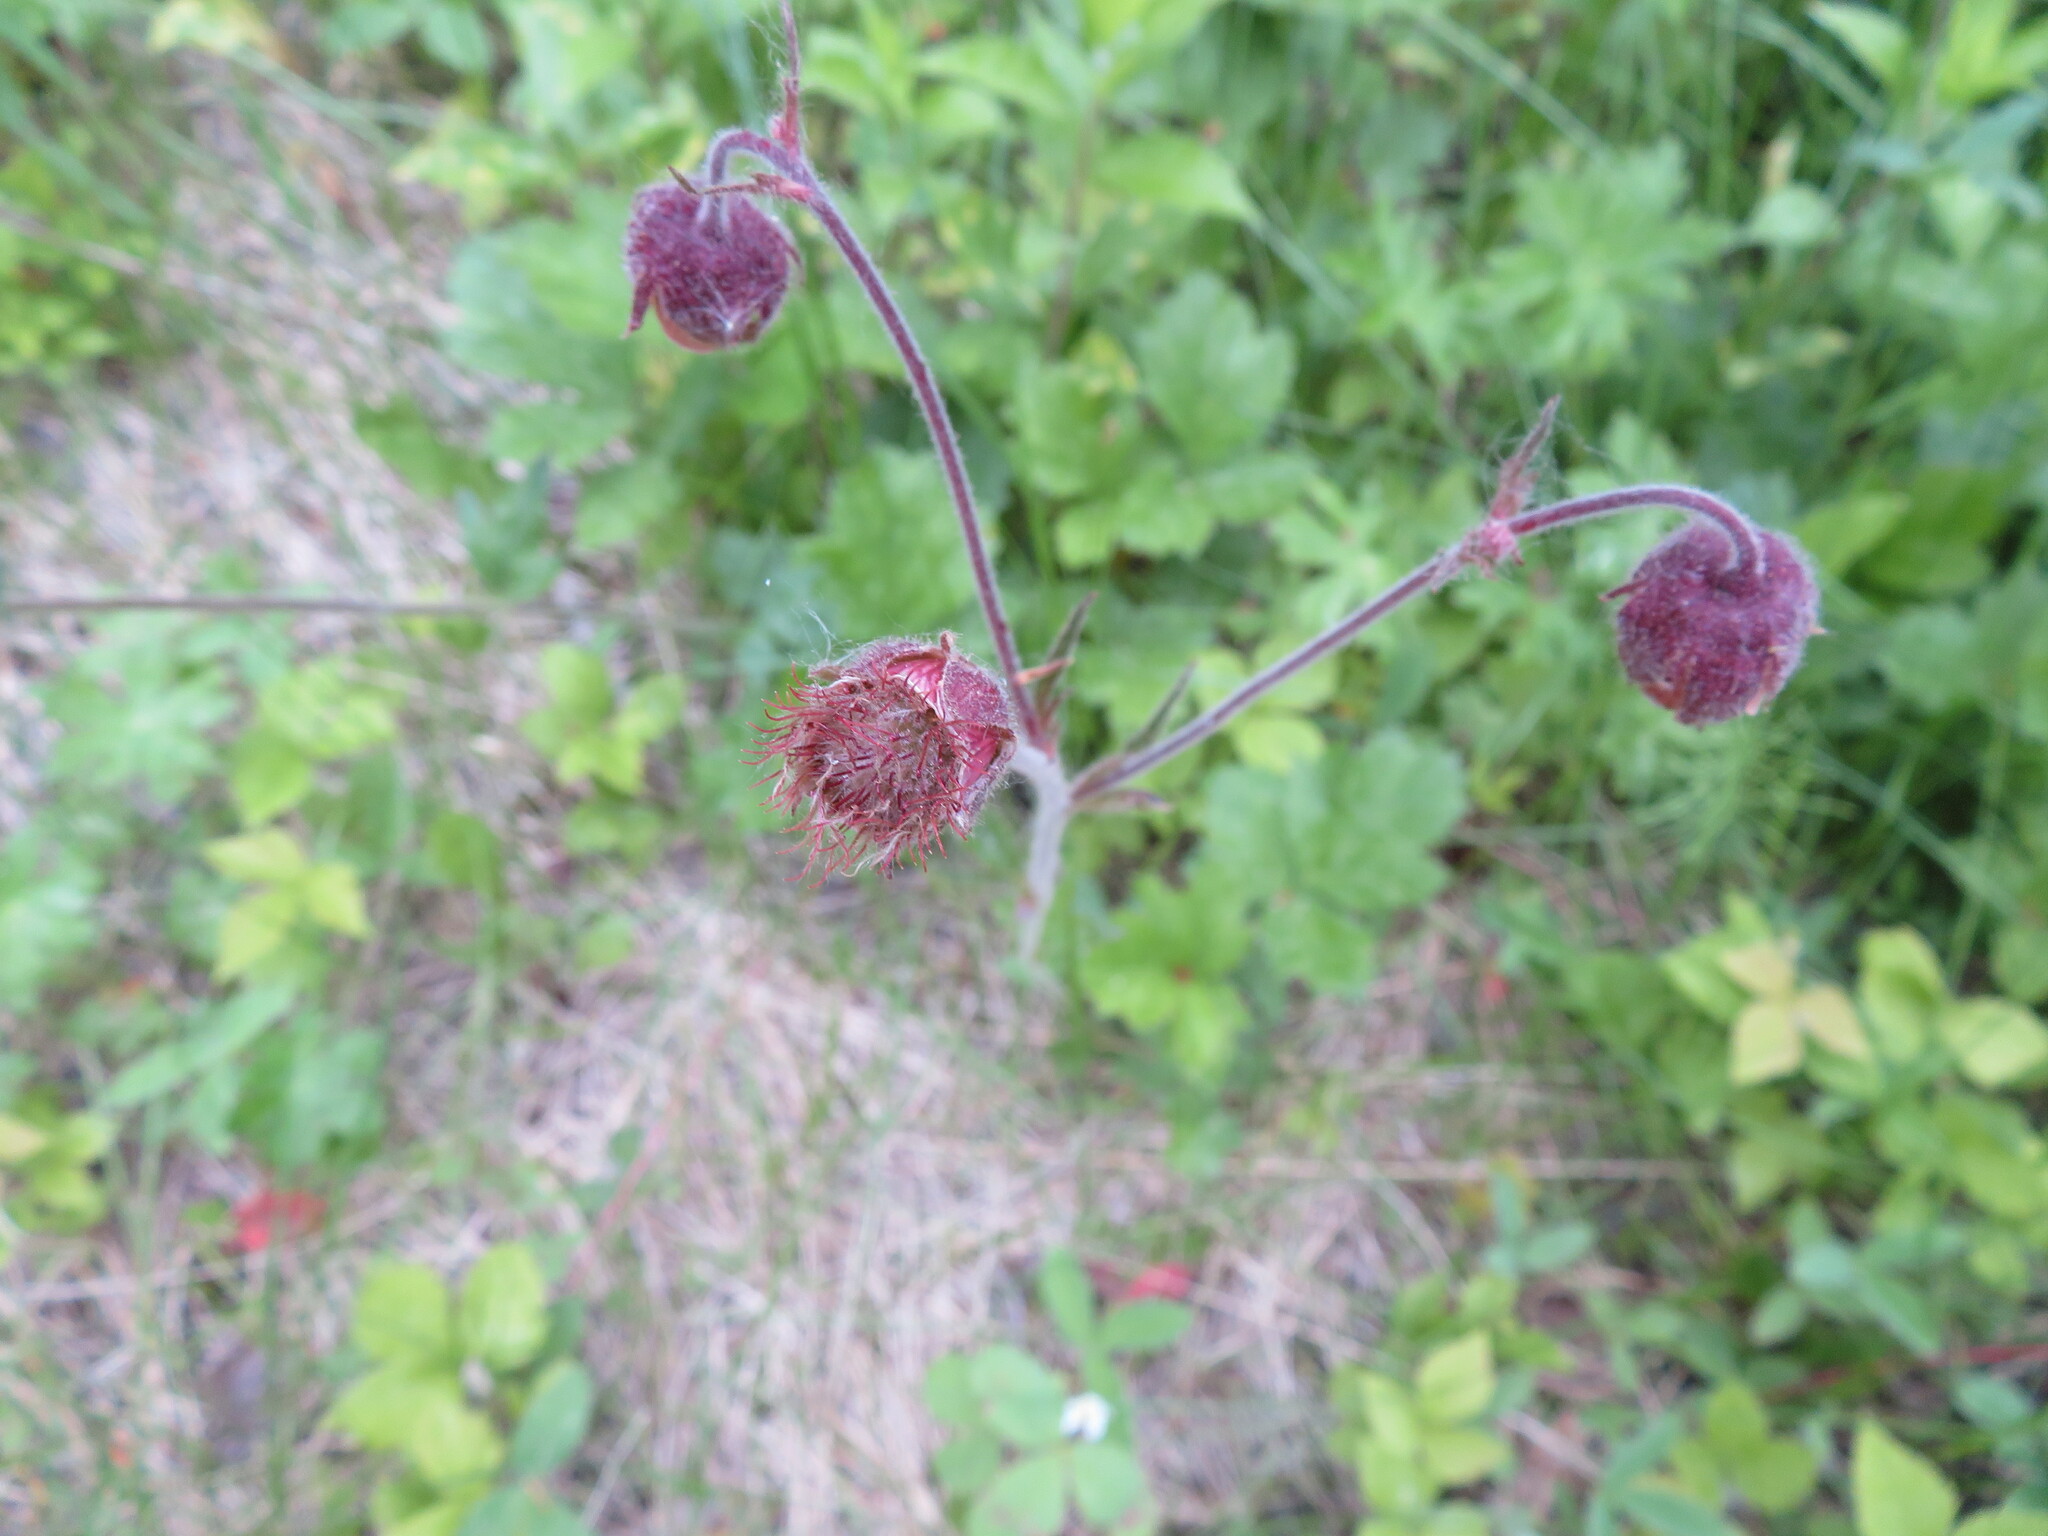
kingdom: Plantae
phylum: Tracheophyta
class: Magnoliopsida
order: Rosales
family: Rosaceae
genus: Geum
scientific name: Geum rivale
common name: Water avens
